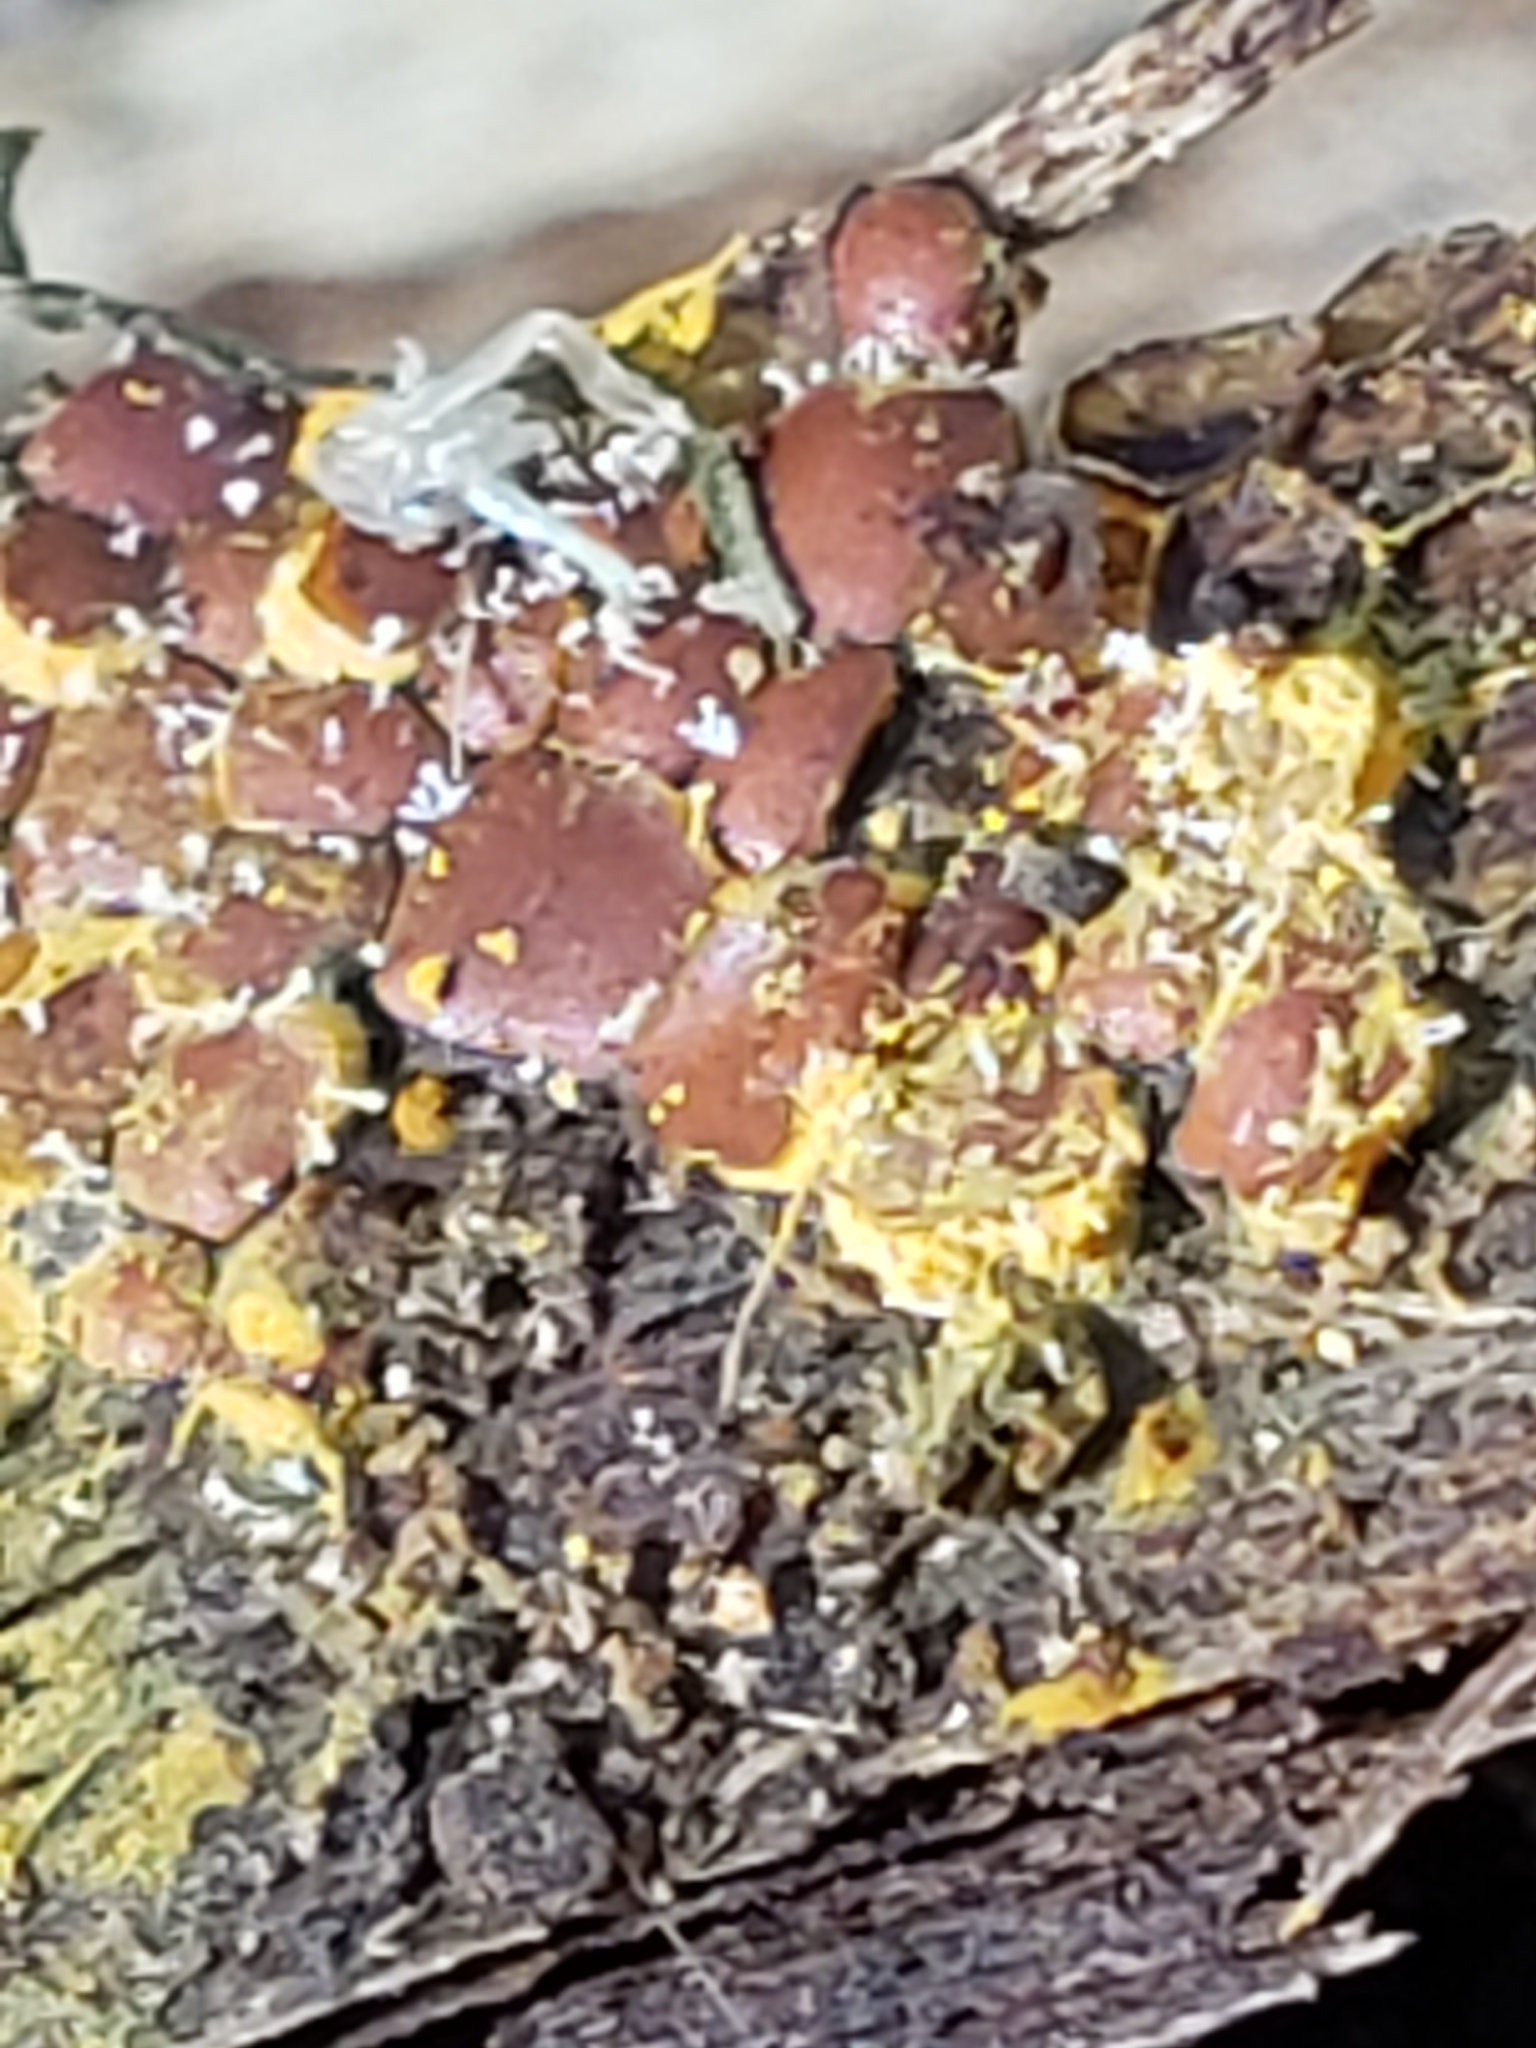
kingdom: Protozoa
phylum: Mycetozoa
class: Myxomycetes
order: Trichiales
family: Trichiaceae
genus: Perichaena
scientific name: Perichaena depressa
